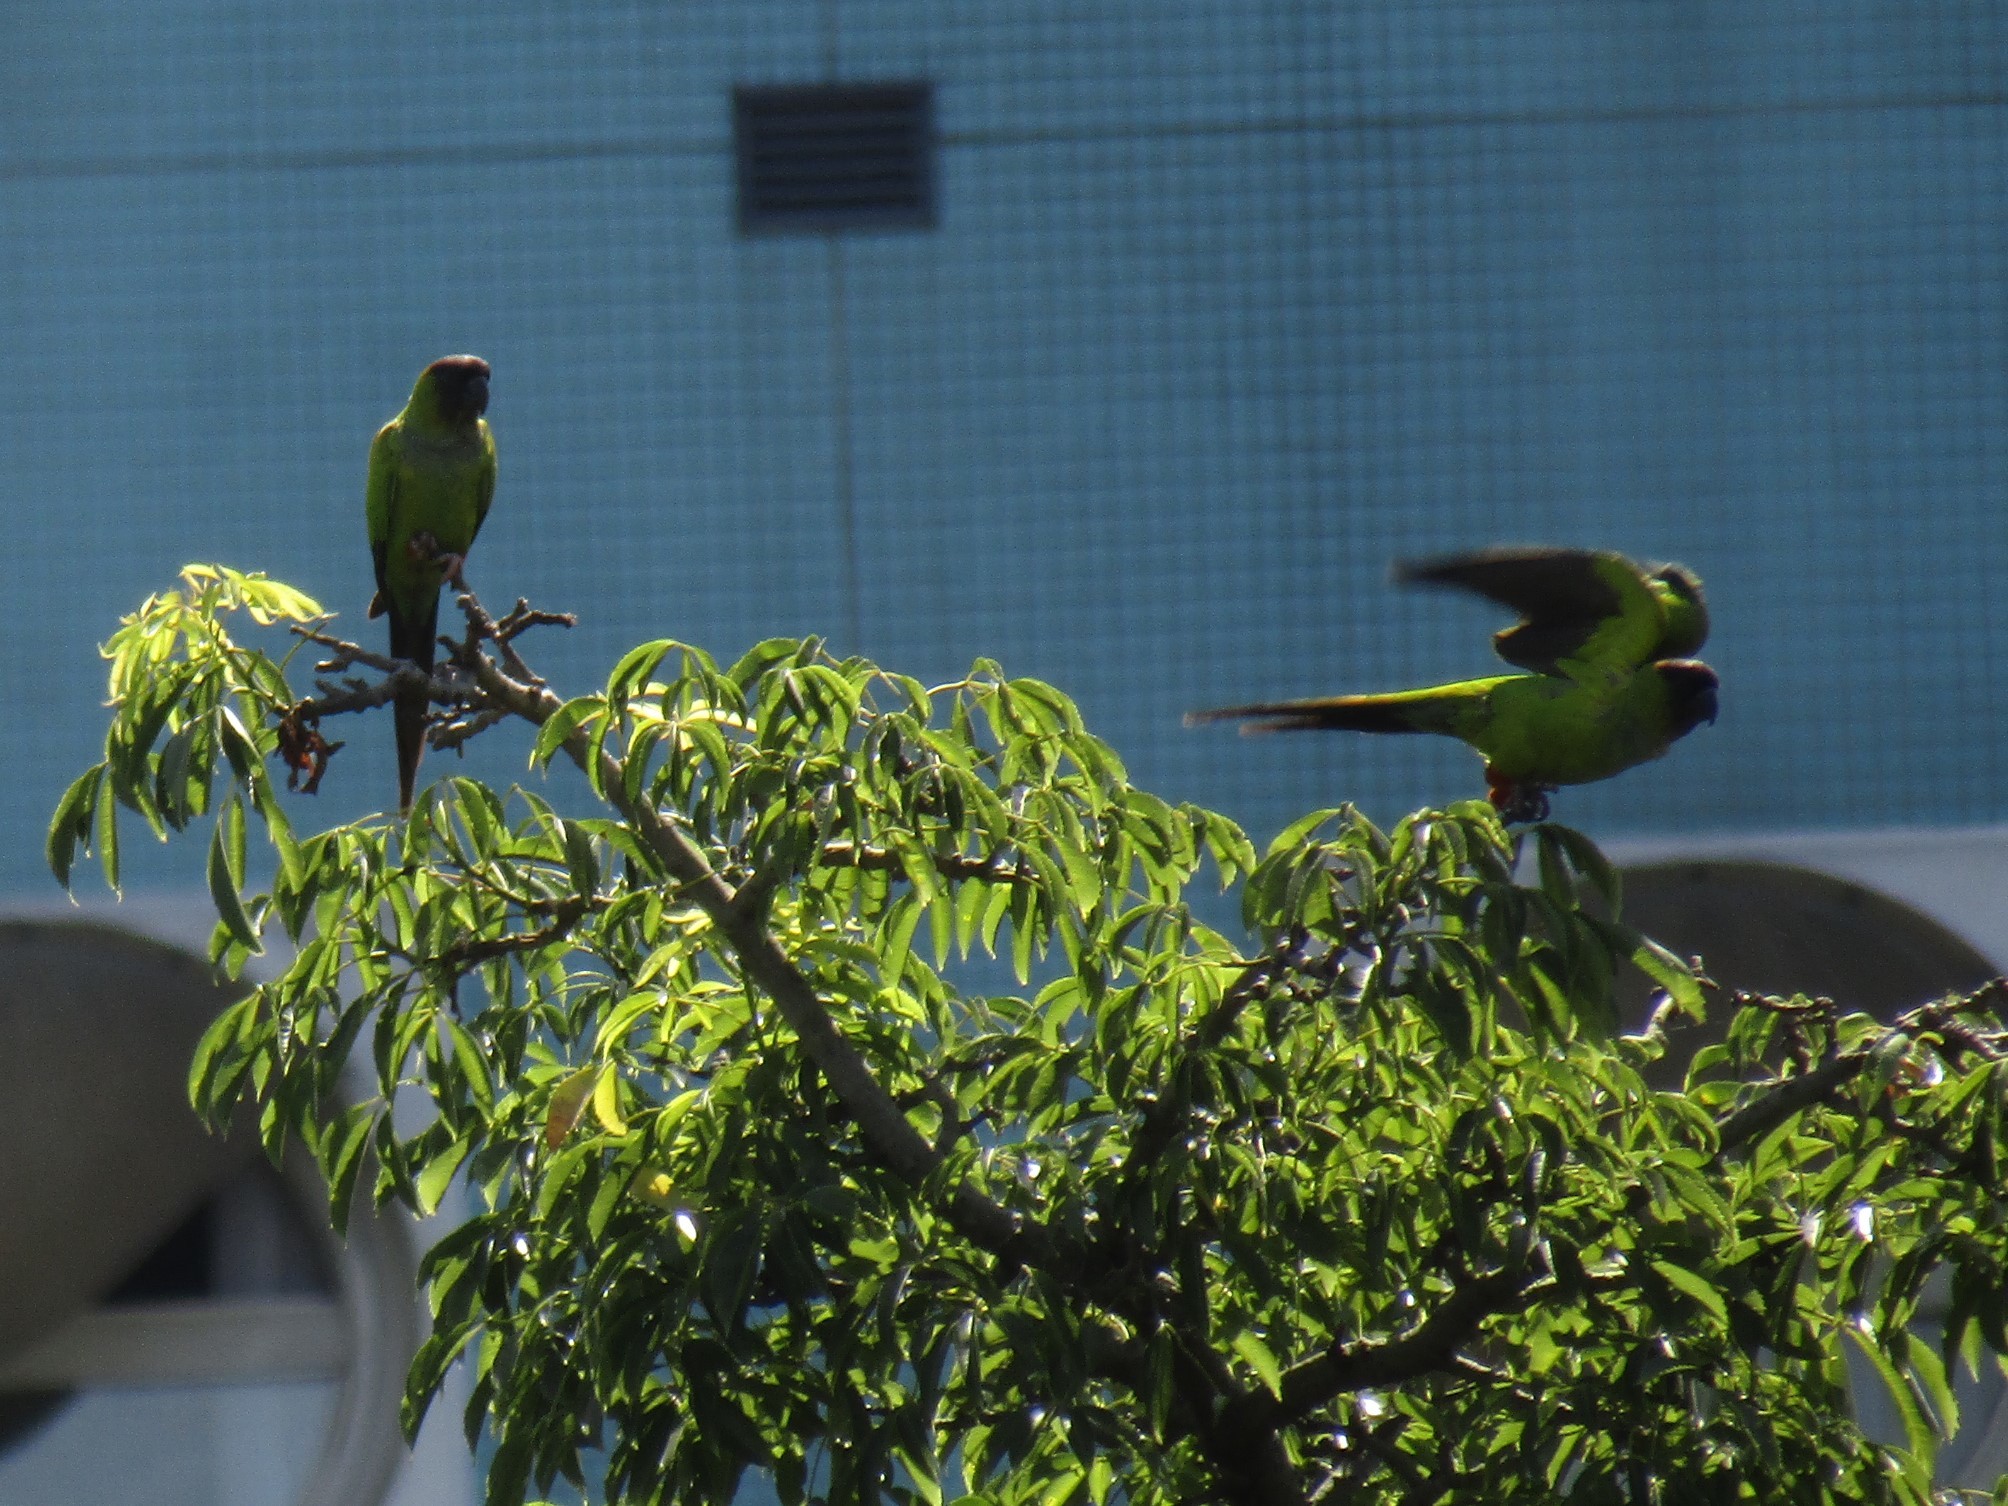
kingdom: Animalia
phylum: Chordata
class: Aves
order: Psittaciformes
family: Psittacidae
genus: Nandayus
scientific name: Nandayus nenday
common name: Nanday parakeet
